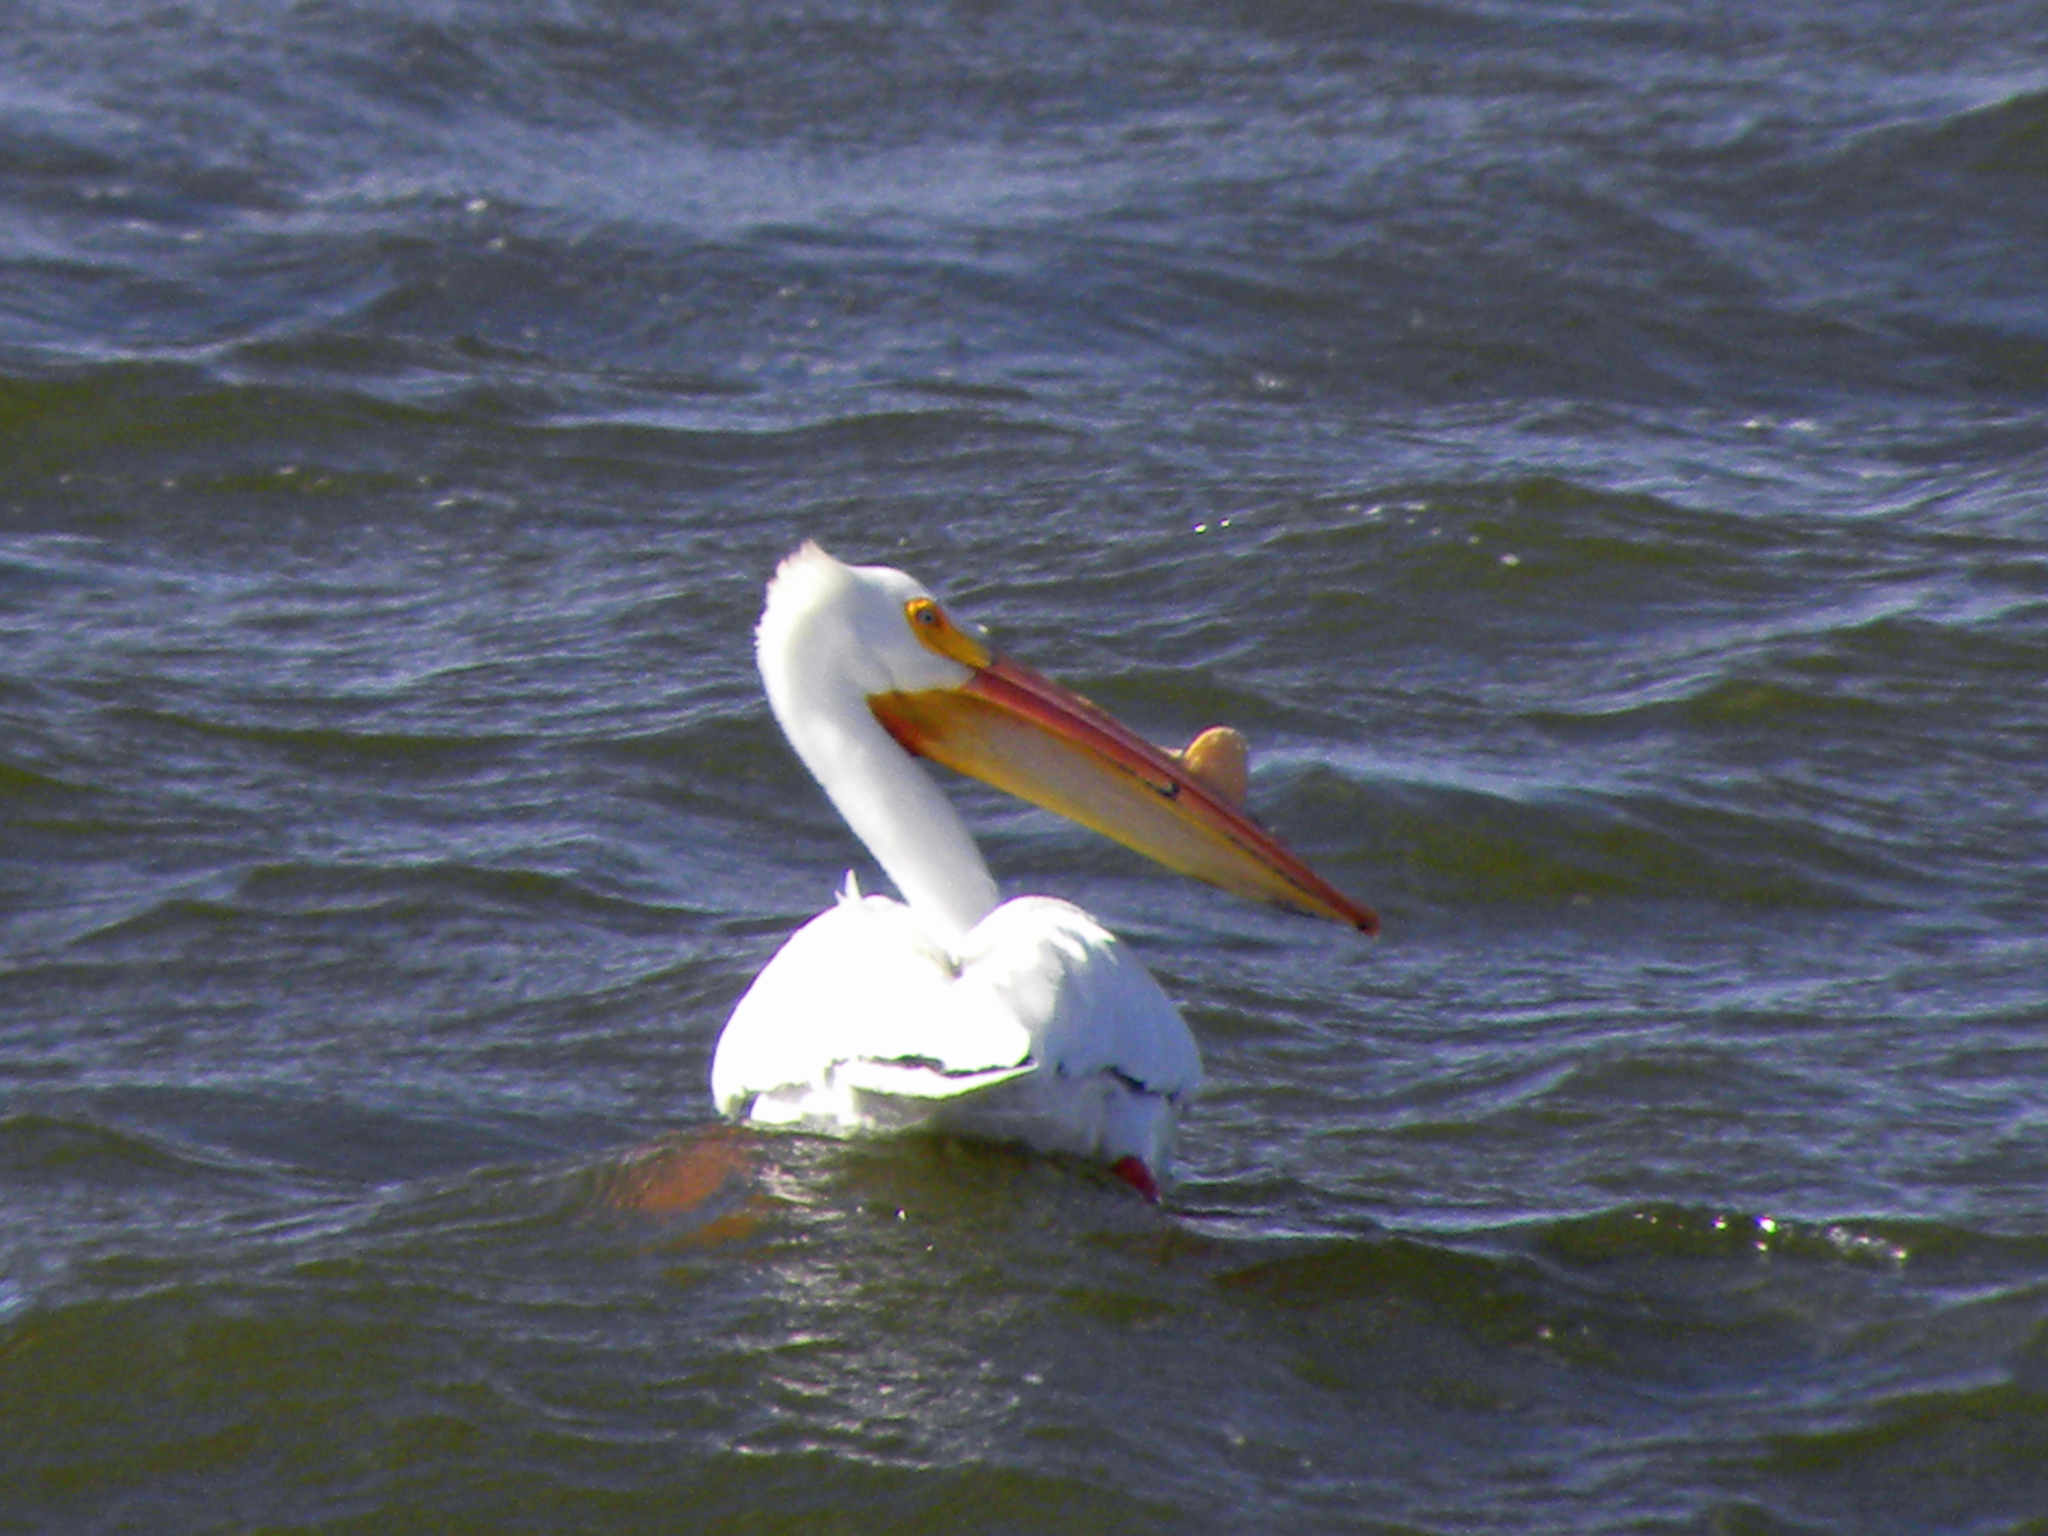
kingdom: Animalia
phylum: Chordata
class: Aves
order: Pelecaniformes
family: Pelecanidae
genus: Pelecanus
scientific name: Pelecanus erythrorhynchos
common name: American white pelican
